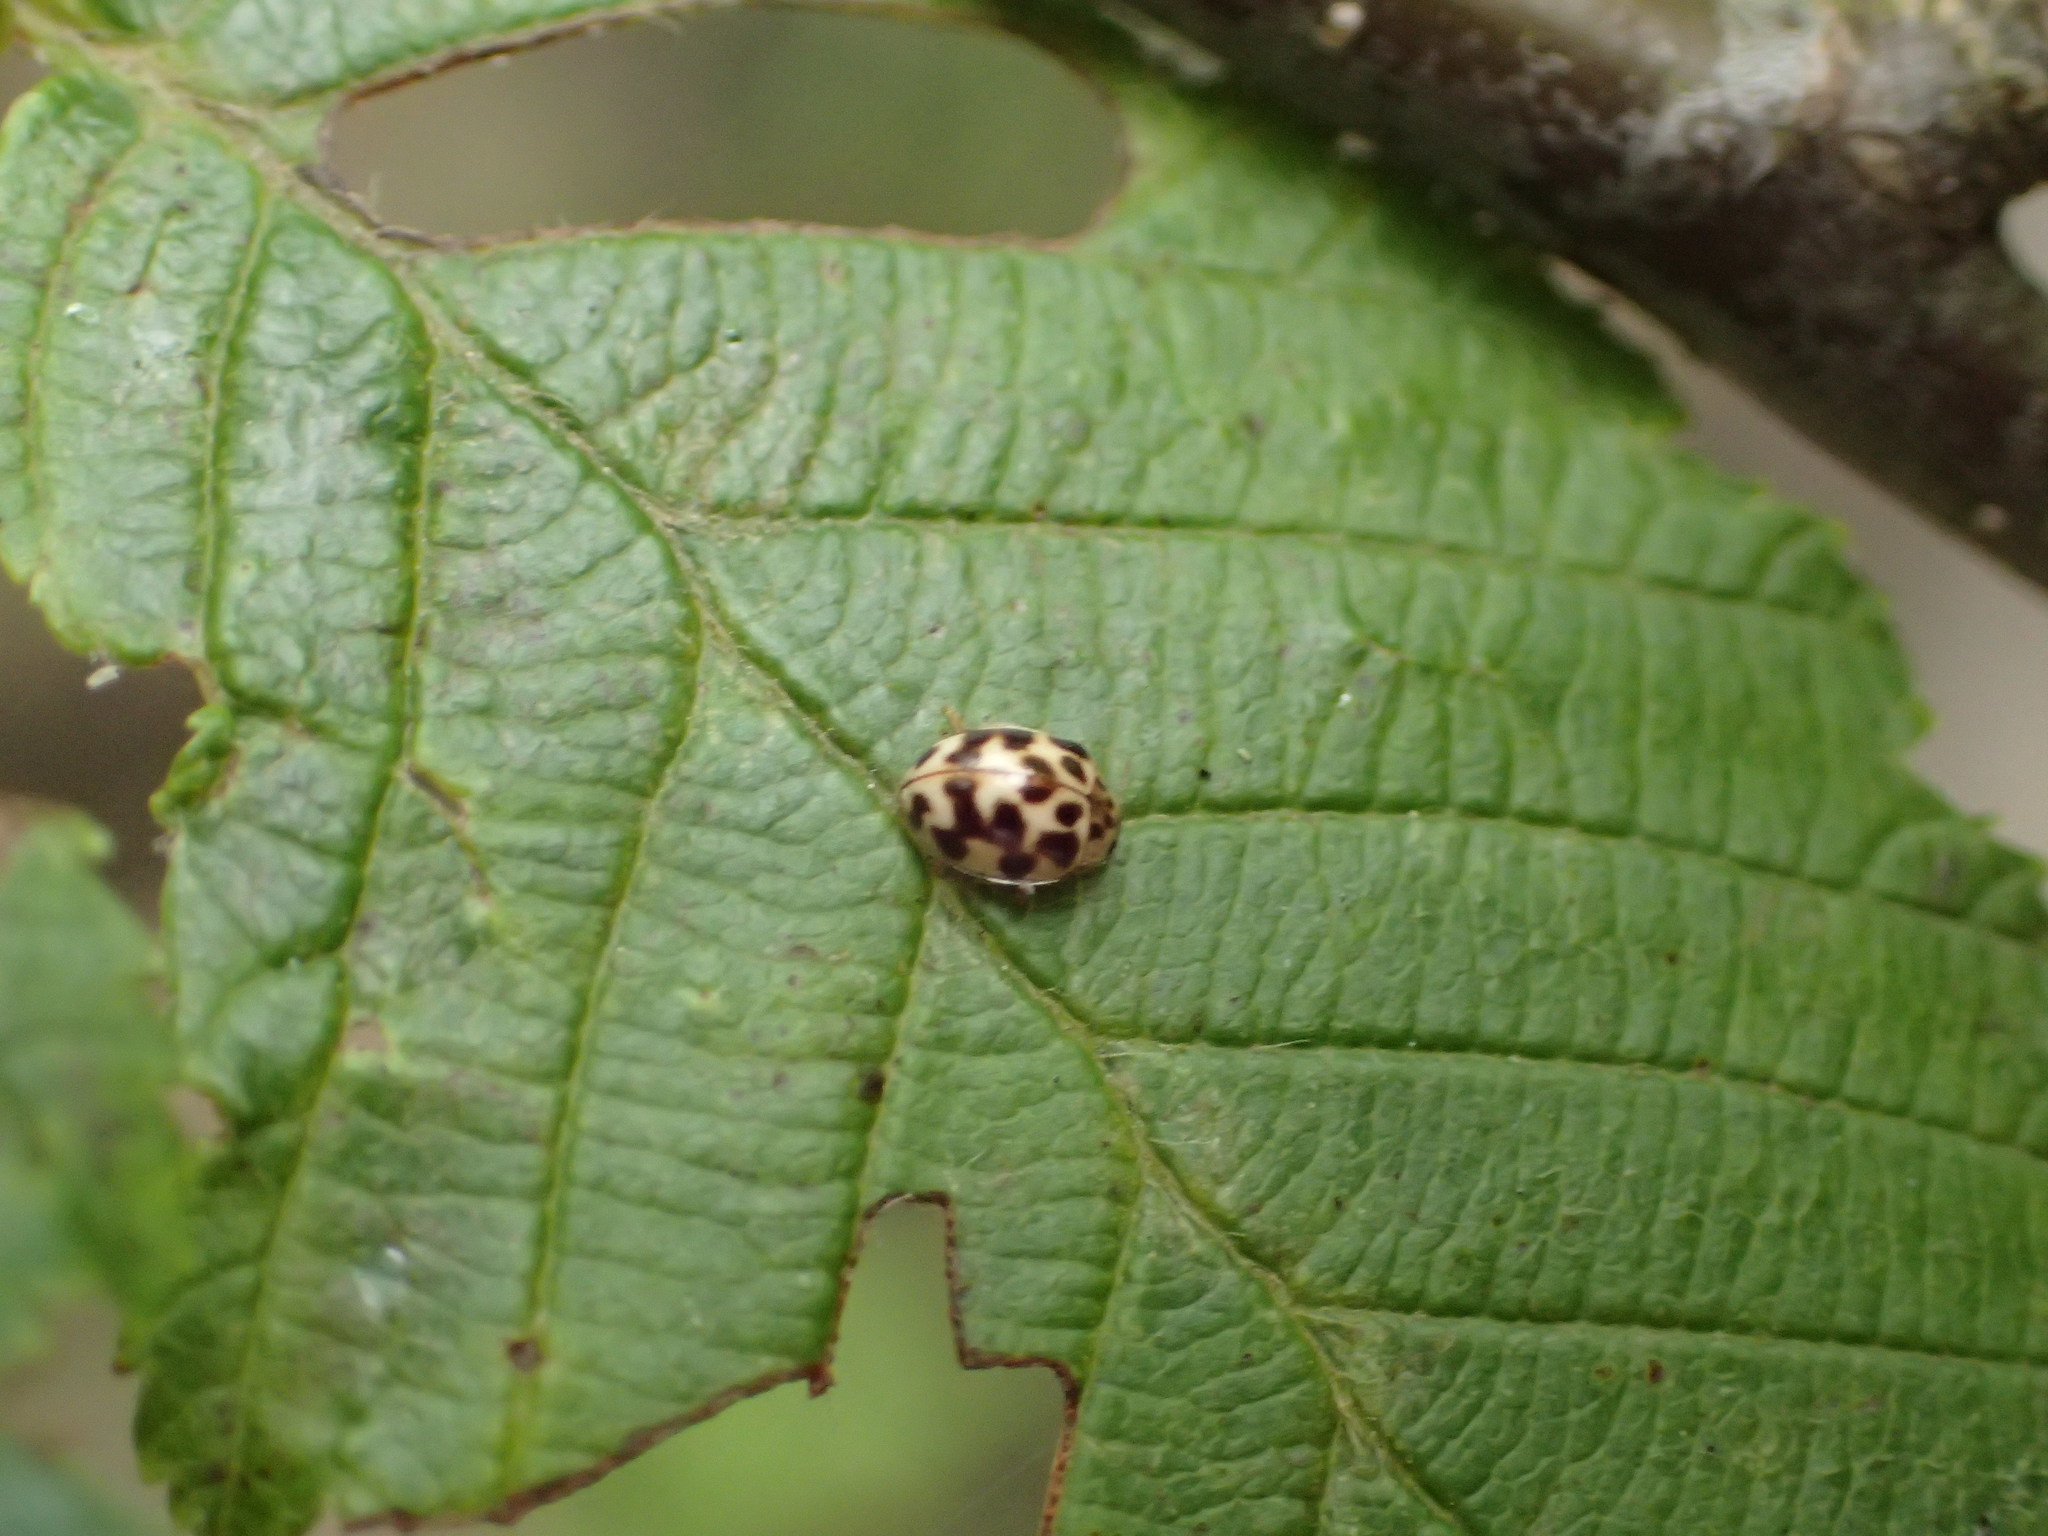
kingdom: Animalia
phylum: Arthropoda
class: Insecta
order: Coleoptera
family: Coccinellidae
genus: Psyllobora
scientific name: Psyllobora vigintimaculata
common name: Ladybird beetle
